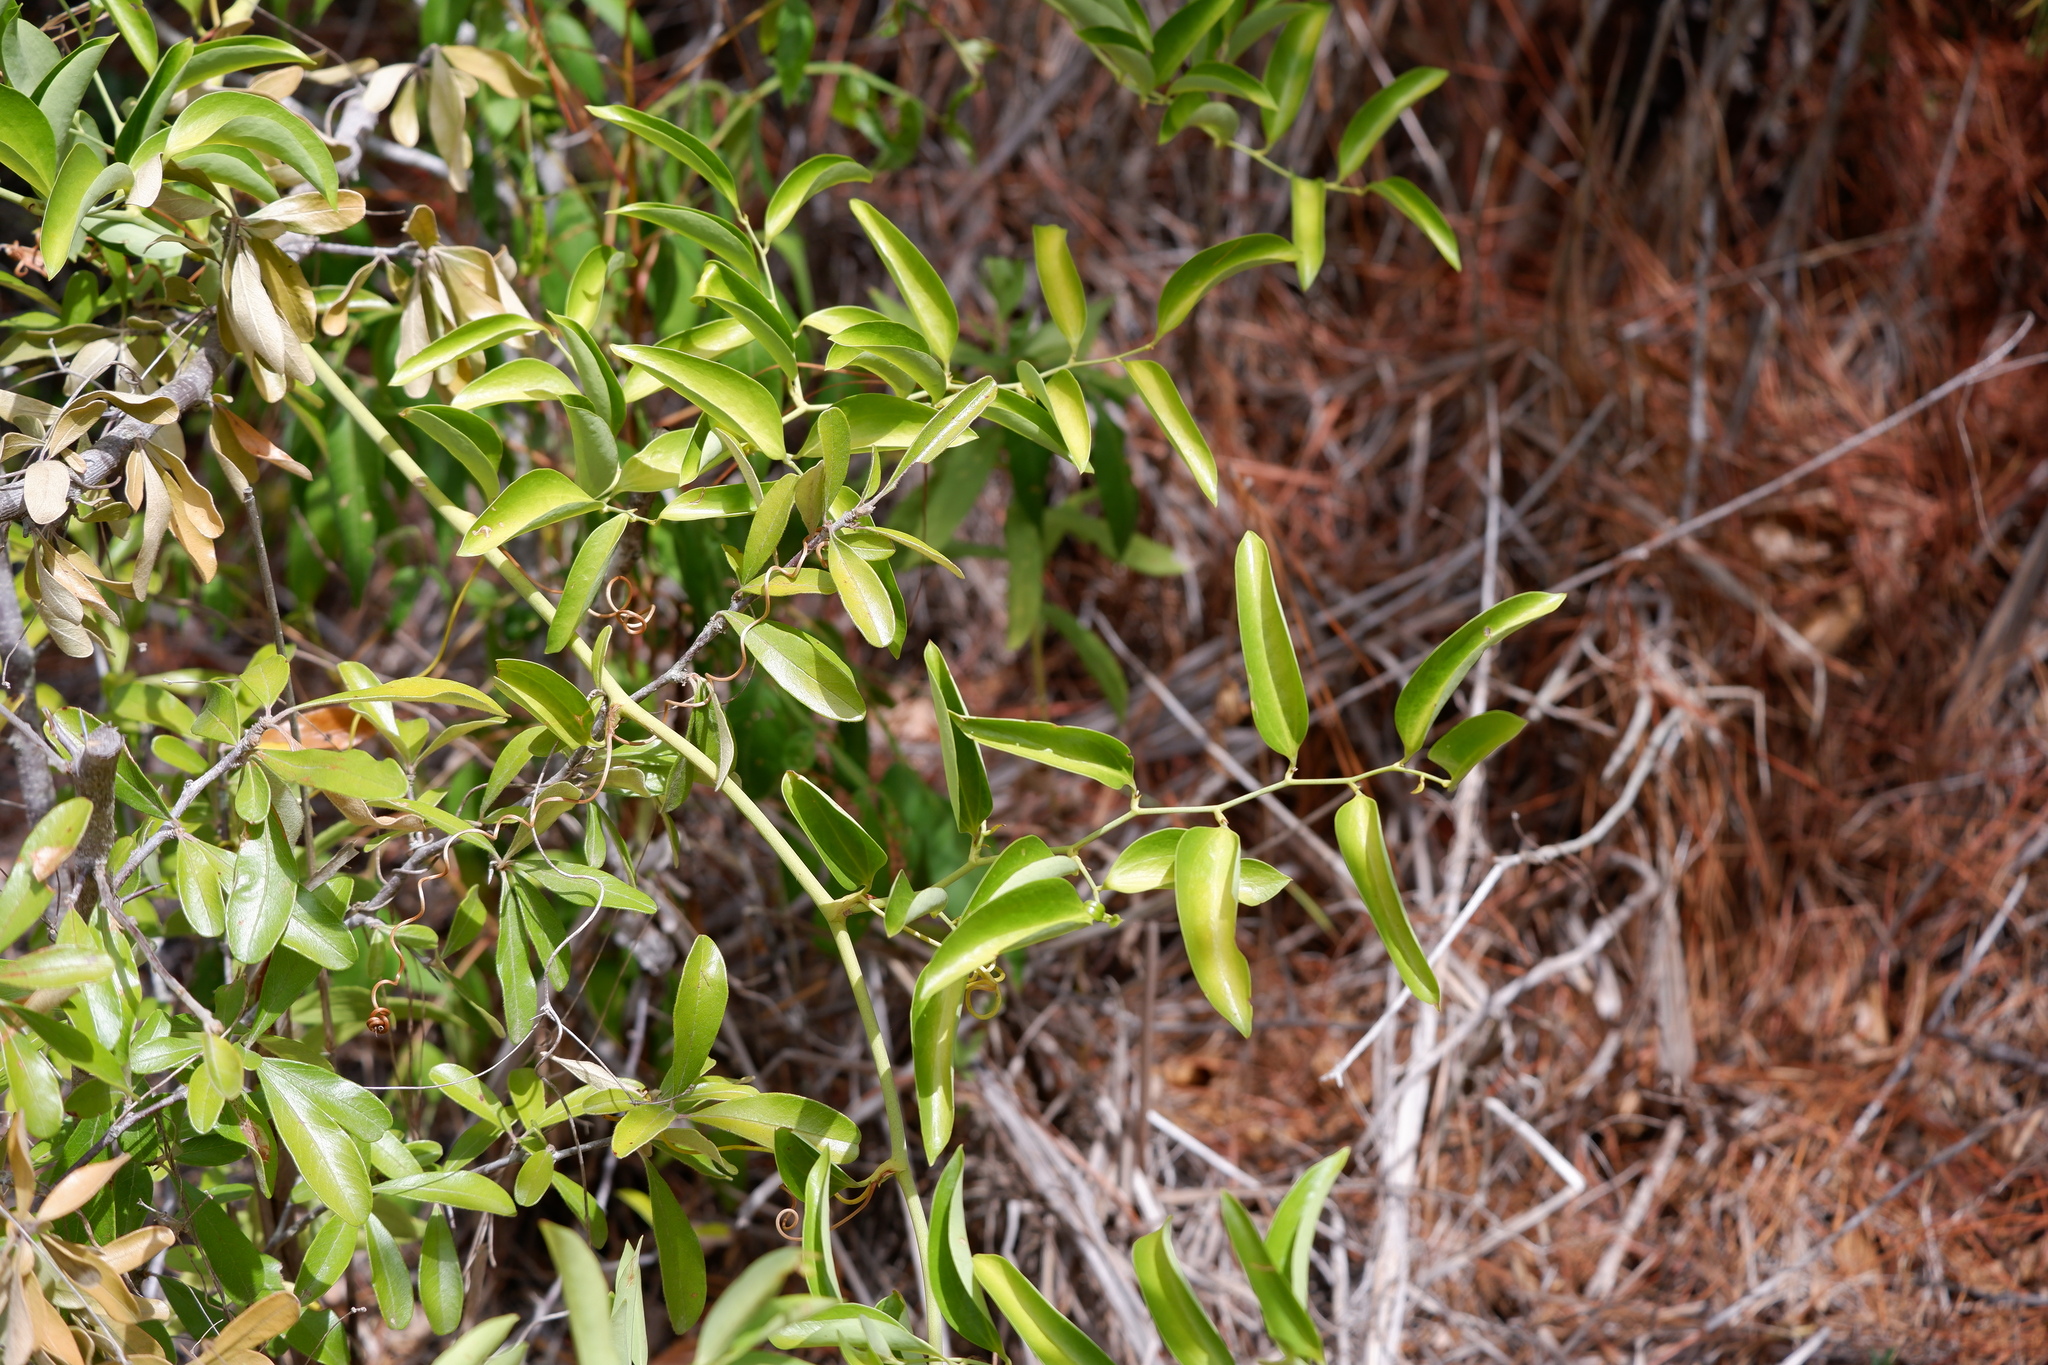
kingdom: Plantae
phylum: Tracheophyta
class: Liliopsida
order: Liliales
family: Smilacaceae
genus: Smilax
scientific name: Smilax maritima
